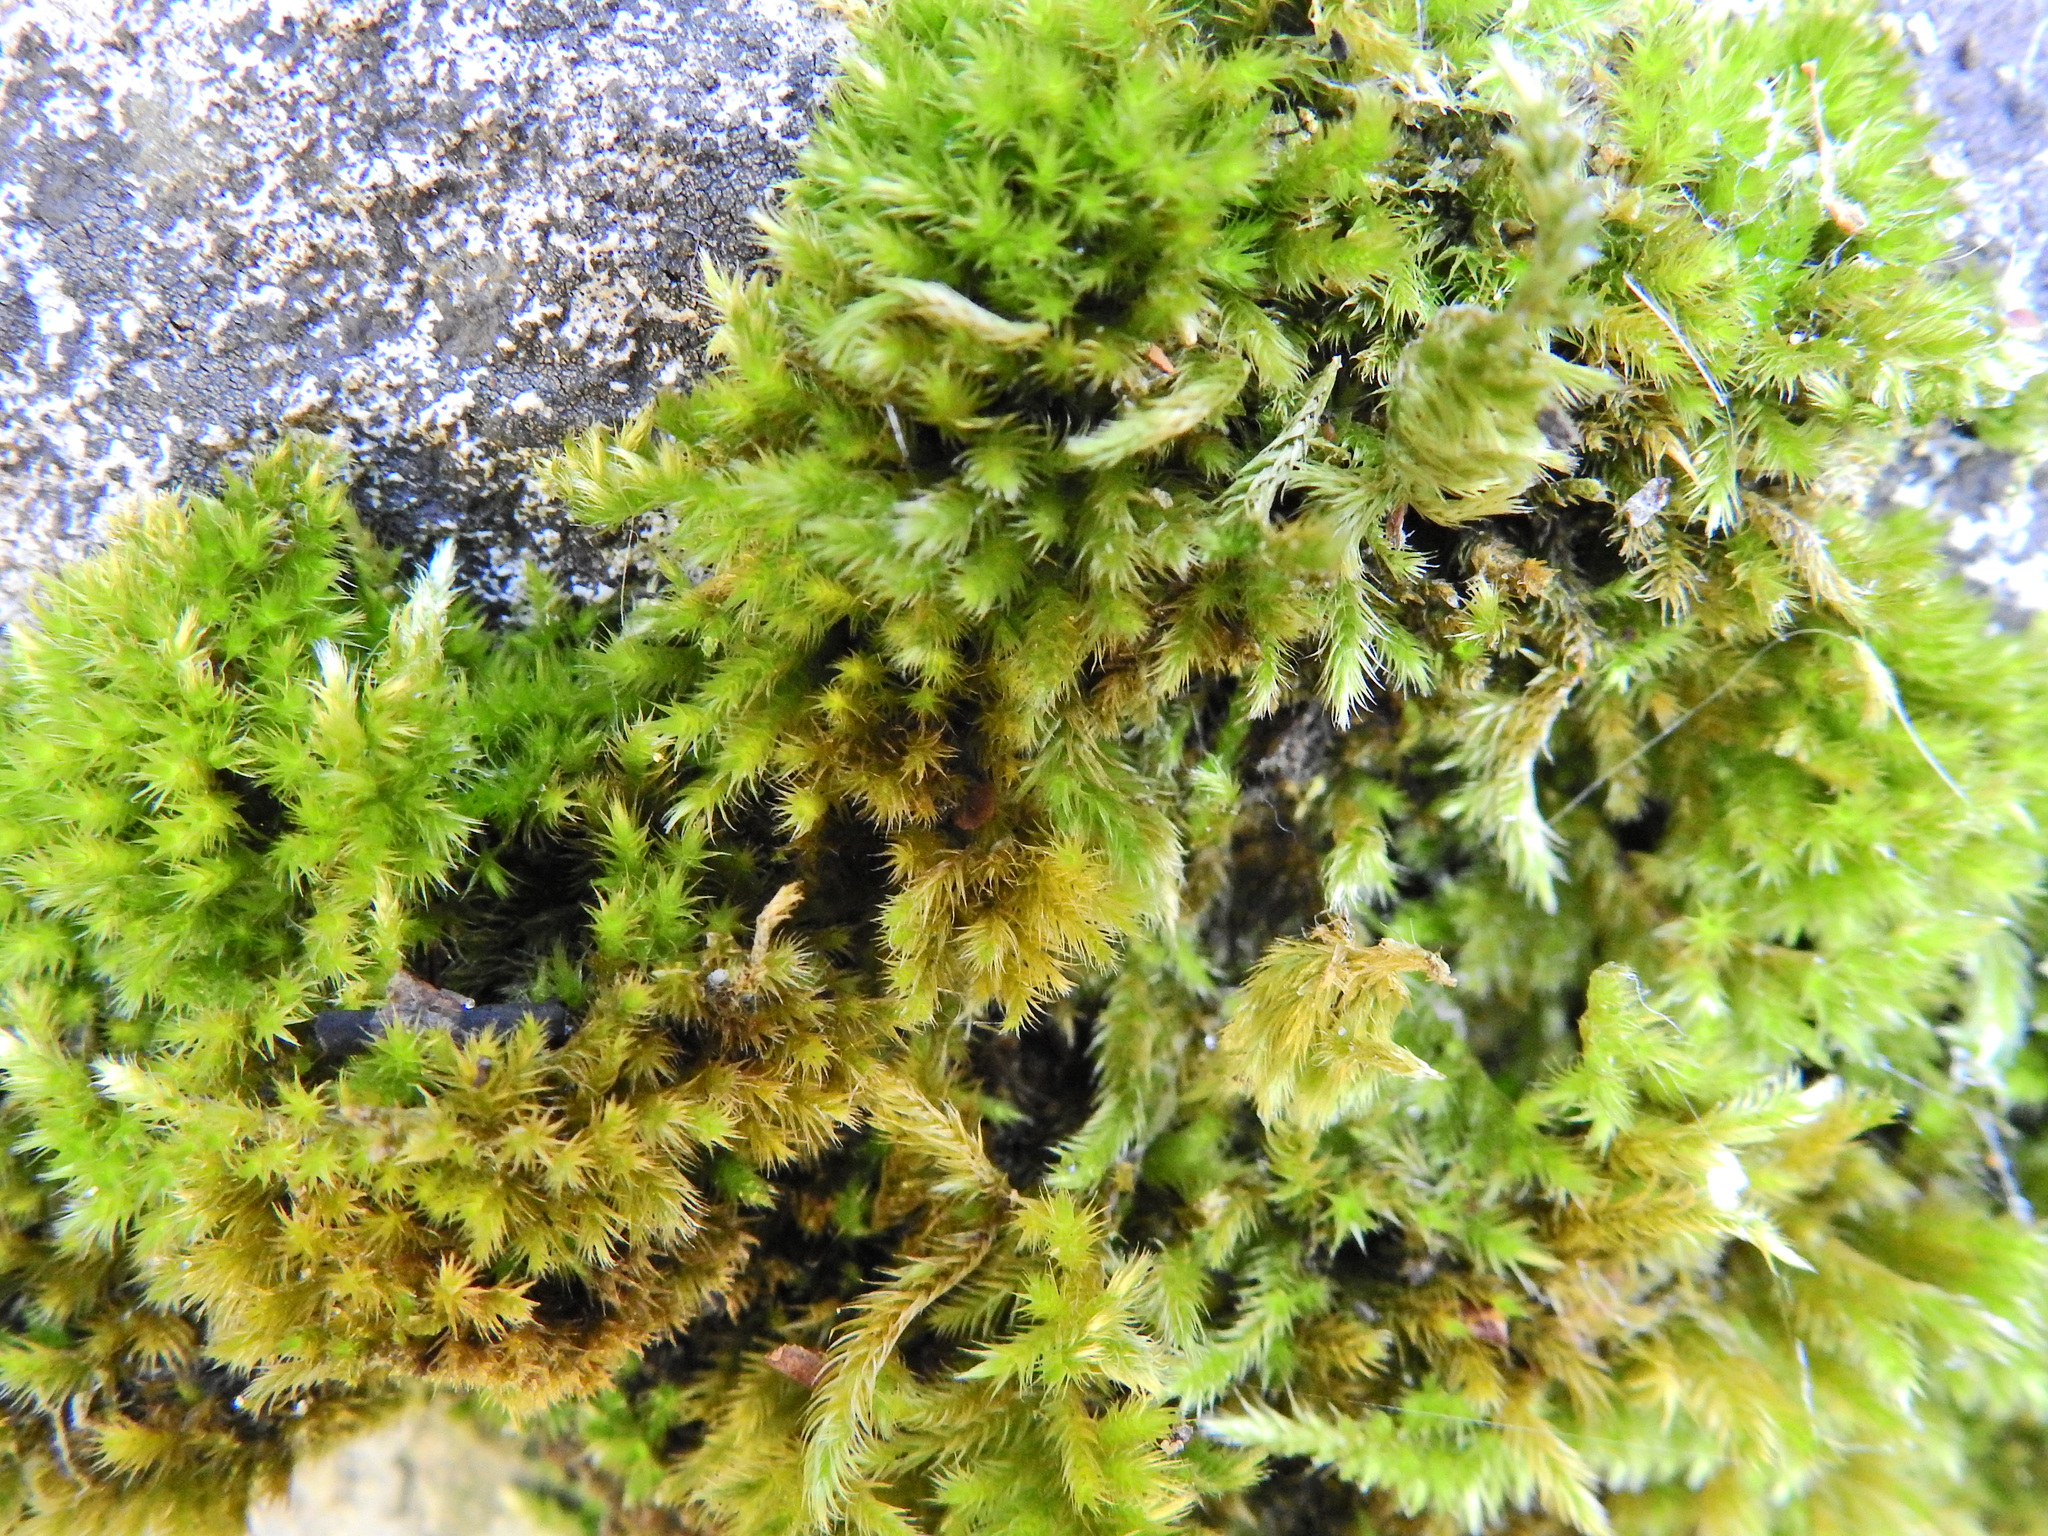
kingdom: Plantae
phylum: Bryophyta
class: Bryopsida
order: Hypnales
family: Brachytheciaceae
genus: Homalothecium
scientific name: Homalothecium sericeum
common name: Silky wall feather-moss
